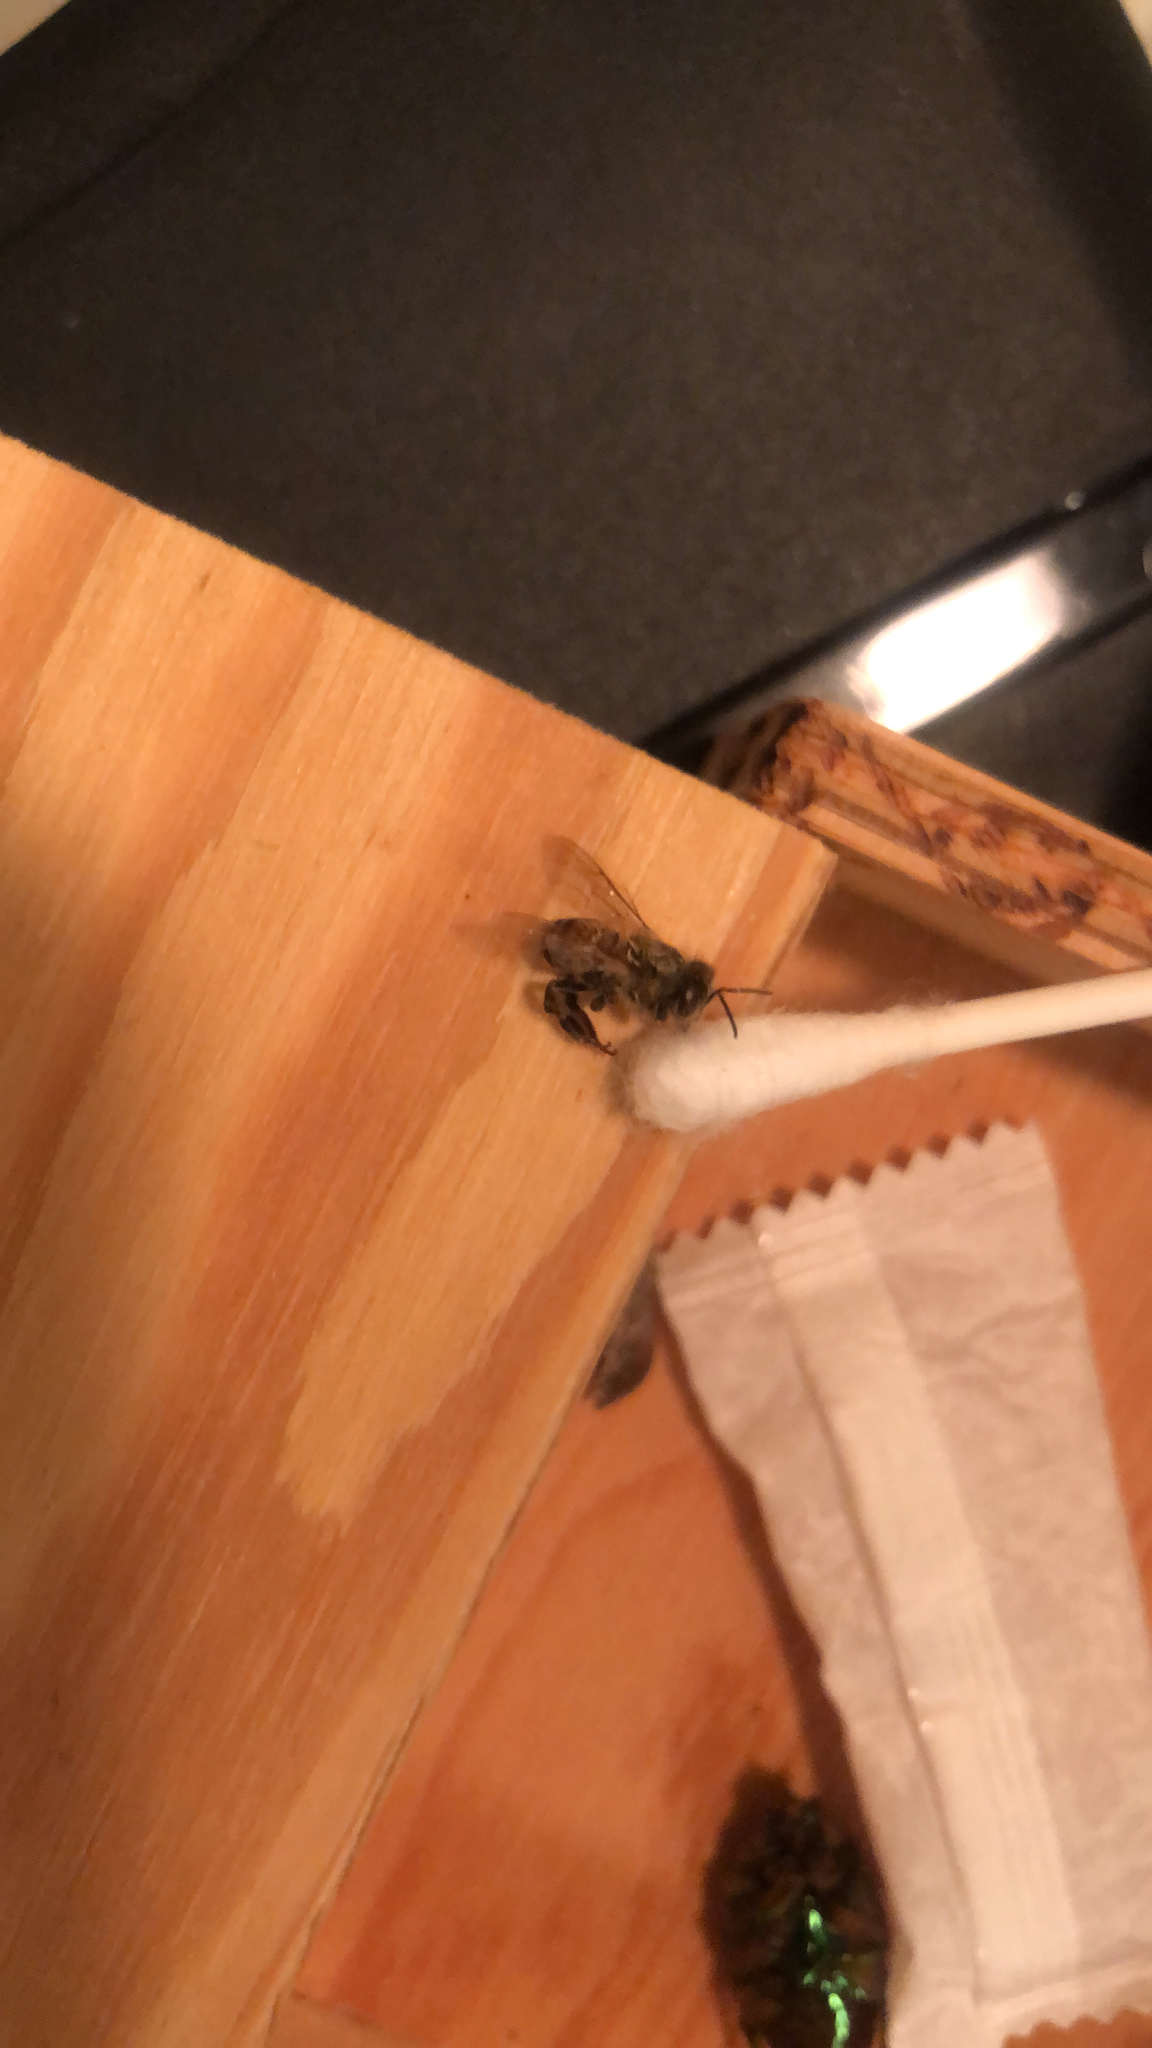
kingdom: Animalia
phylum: Arthropoda
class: Insecta
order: Hymenoptera
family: Apidae
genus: Apis
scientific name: Apis mellifera
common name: Honey bee
